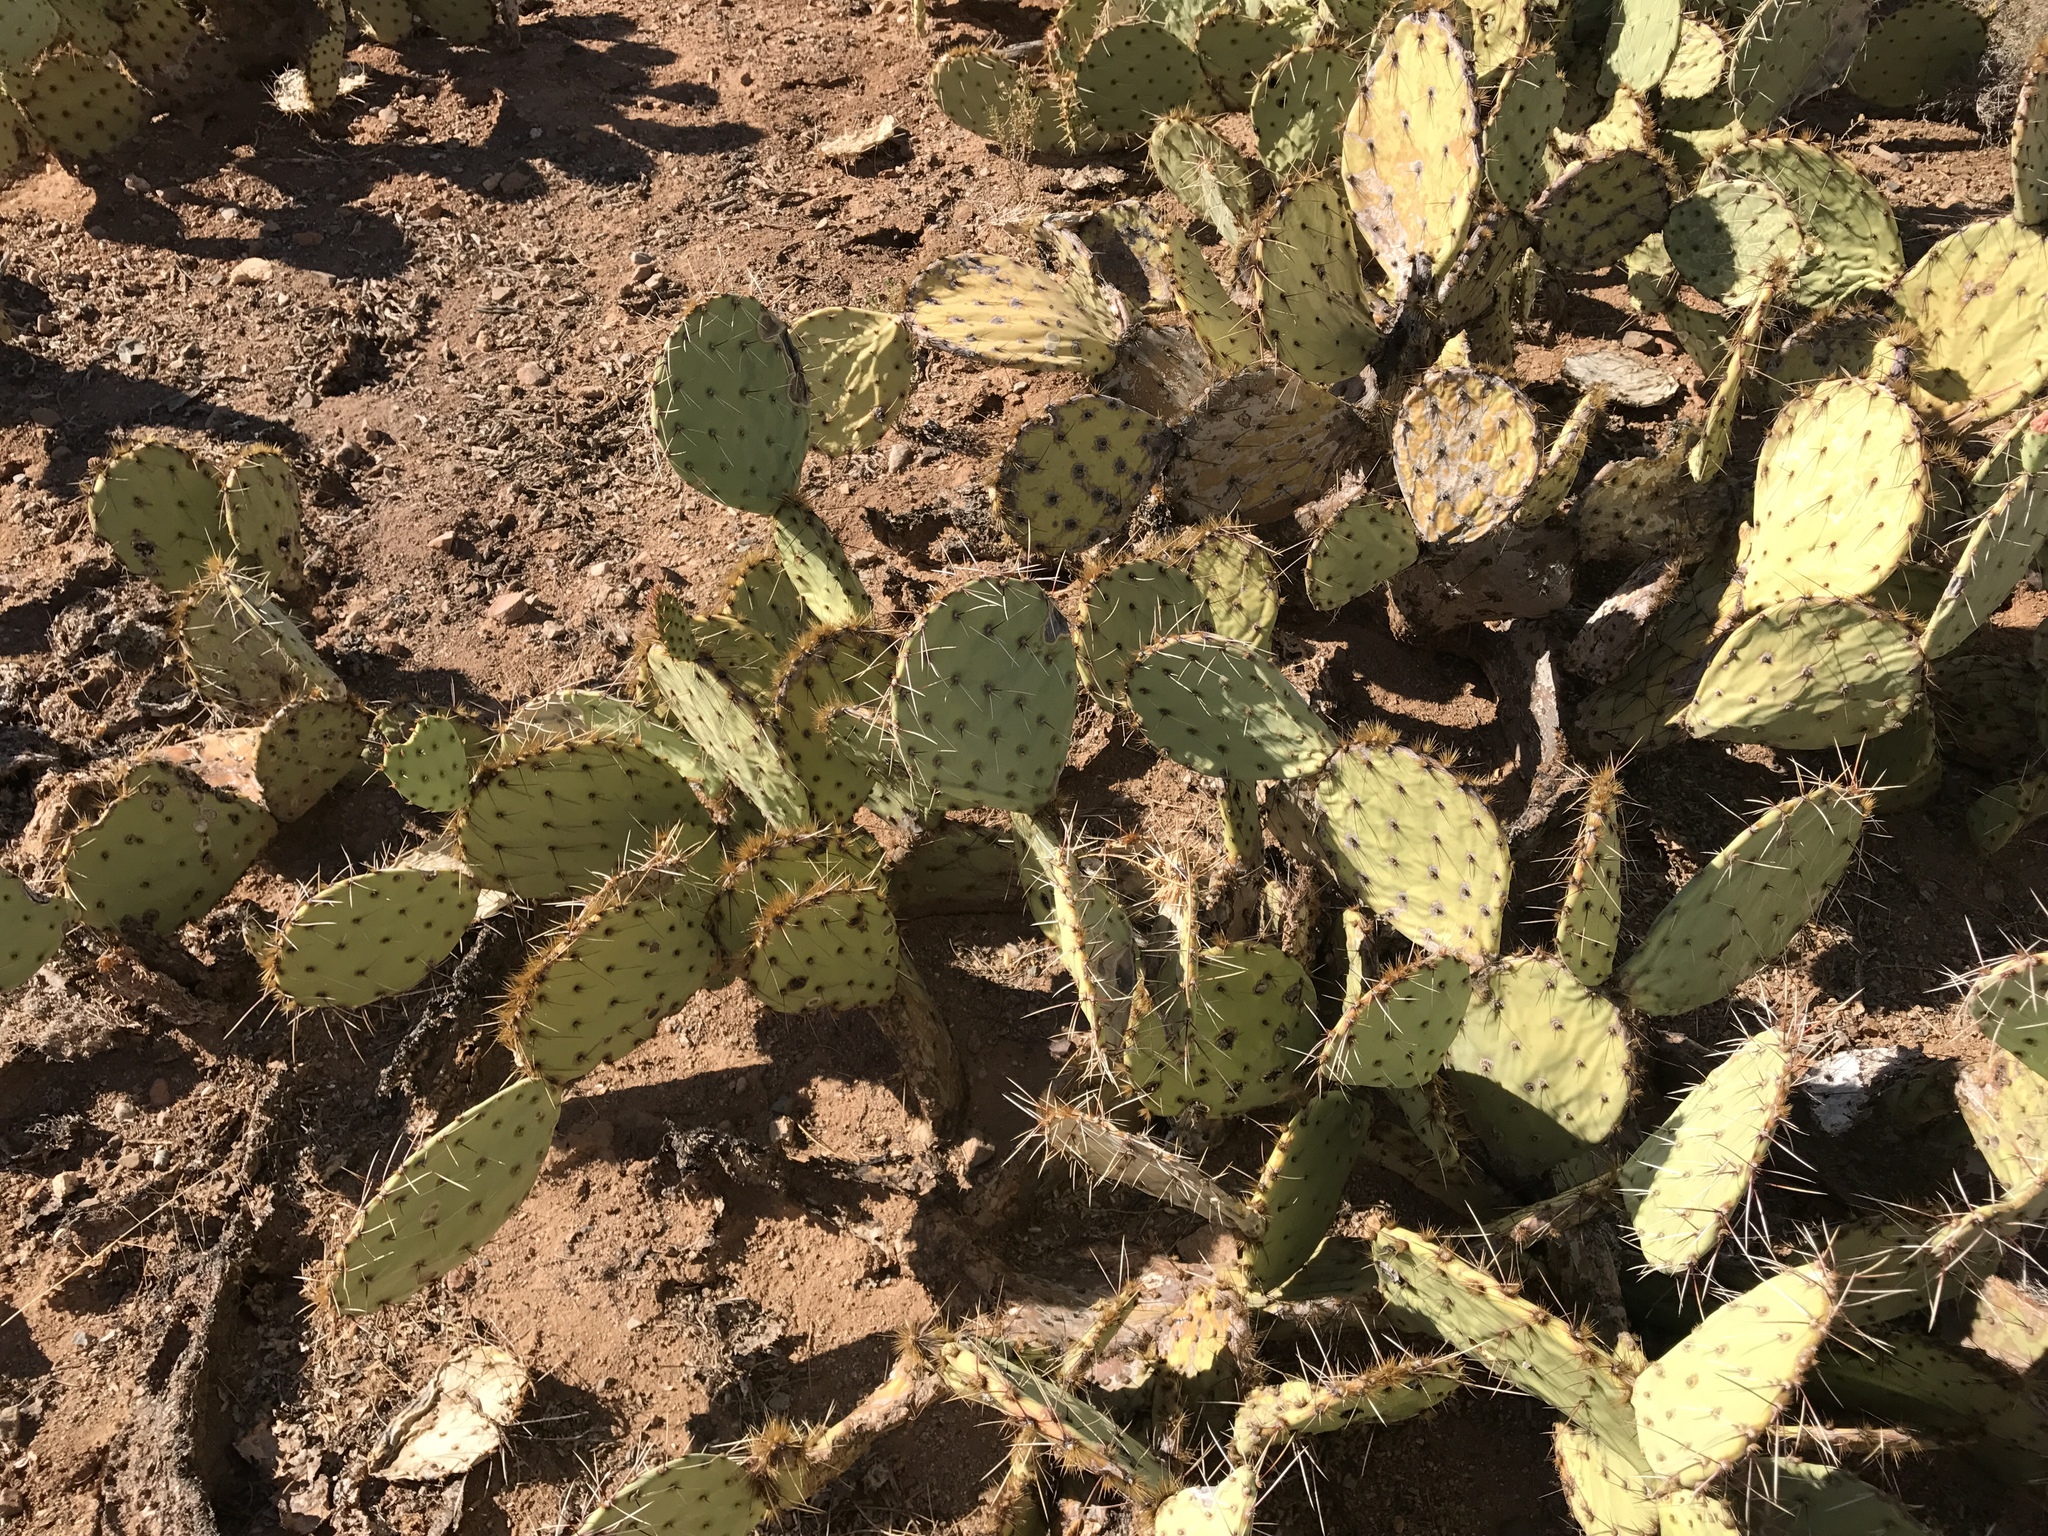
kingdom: Plantae
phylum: Tracheophyta
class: Magnoliopsida
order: Caryophyllales
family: Cactaceae
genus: Opuntia
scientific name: Opuntia phaeacantha
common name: New mexico prickly-pear
